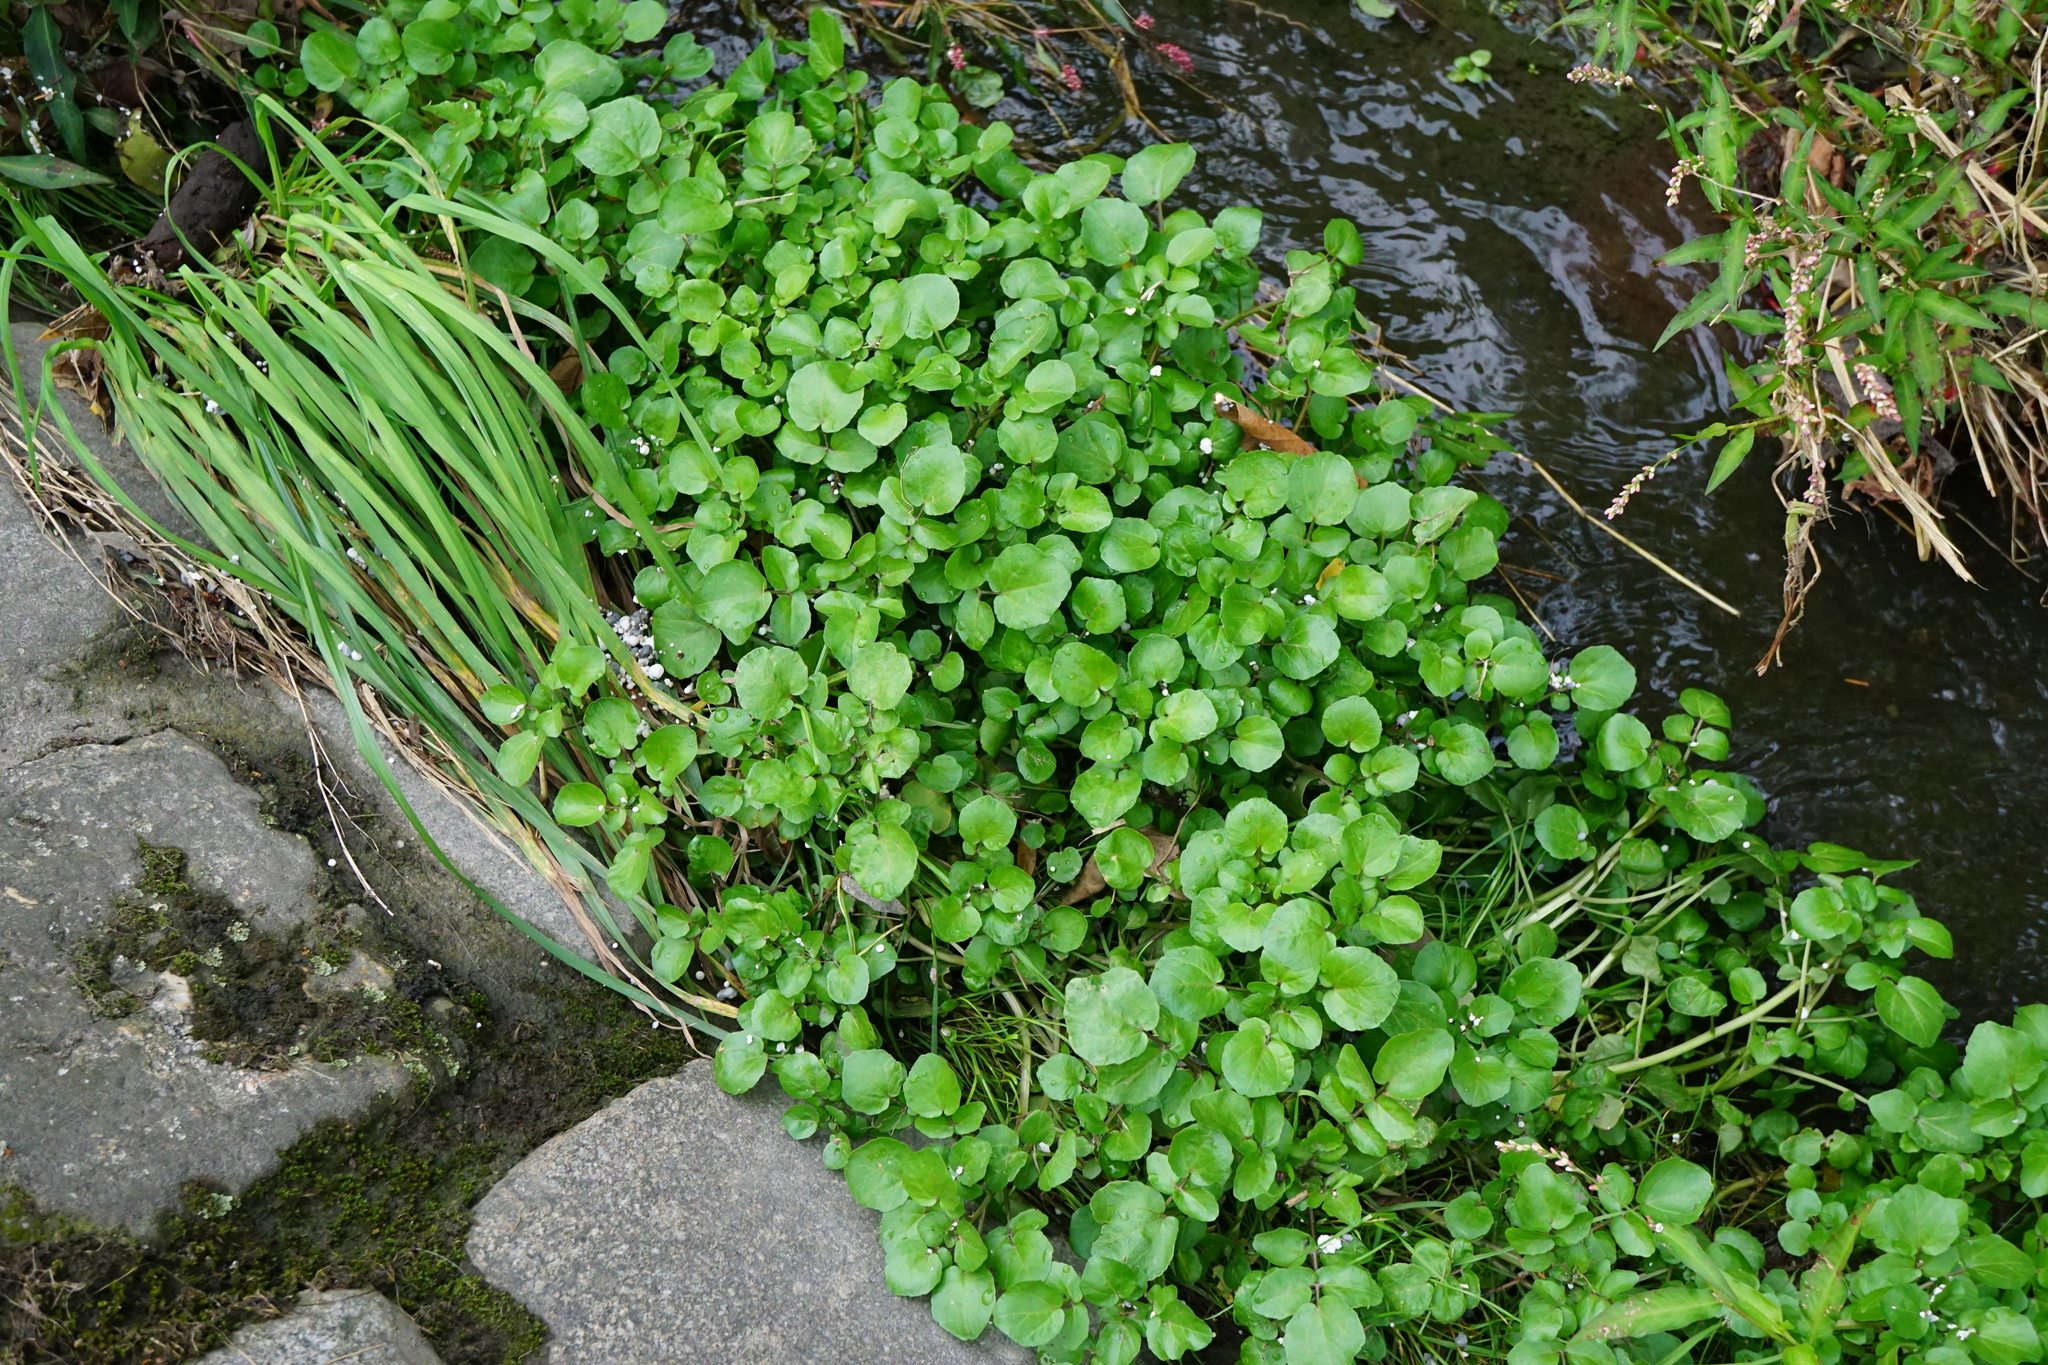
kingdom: Plantae
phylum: Tracheophyta
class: Magnoliopsida
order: Brassicales
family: Brassicaceae
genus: Nasturtium
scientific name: Nasturtium officinale
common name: Watercress
